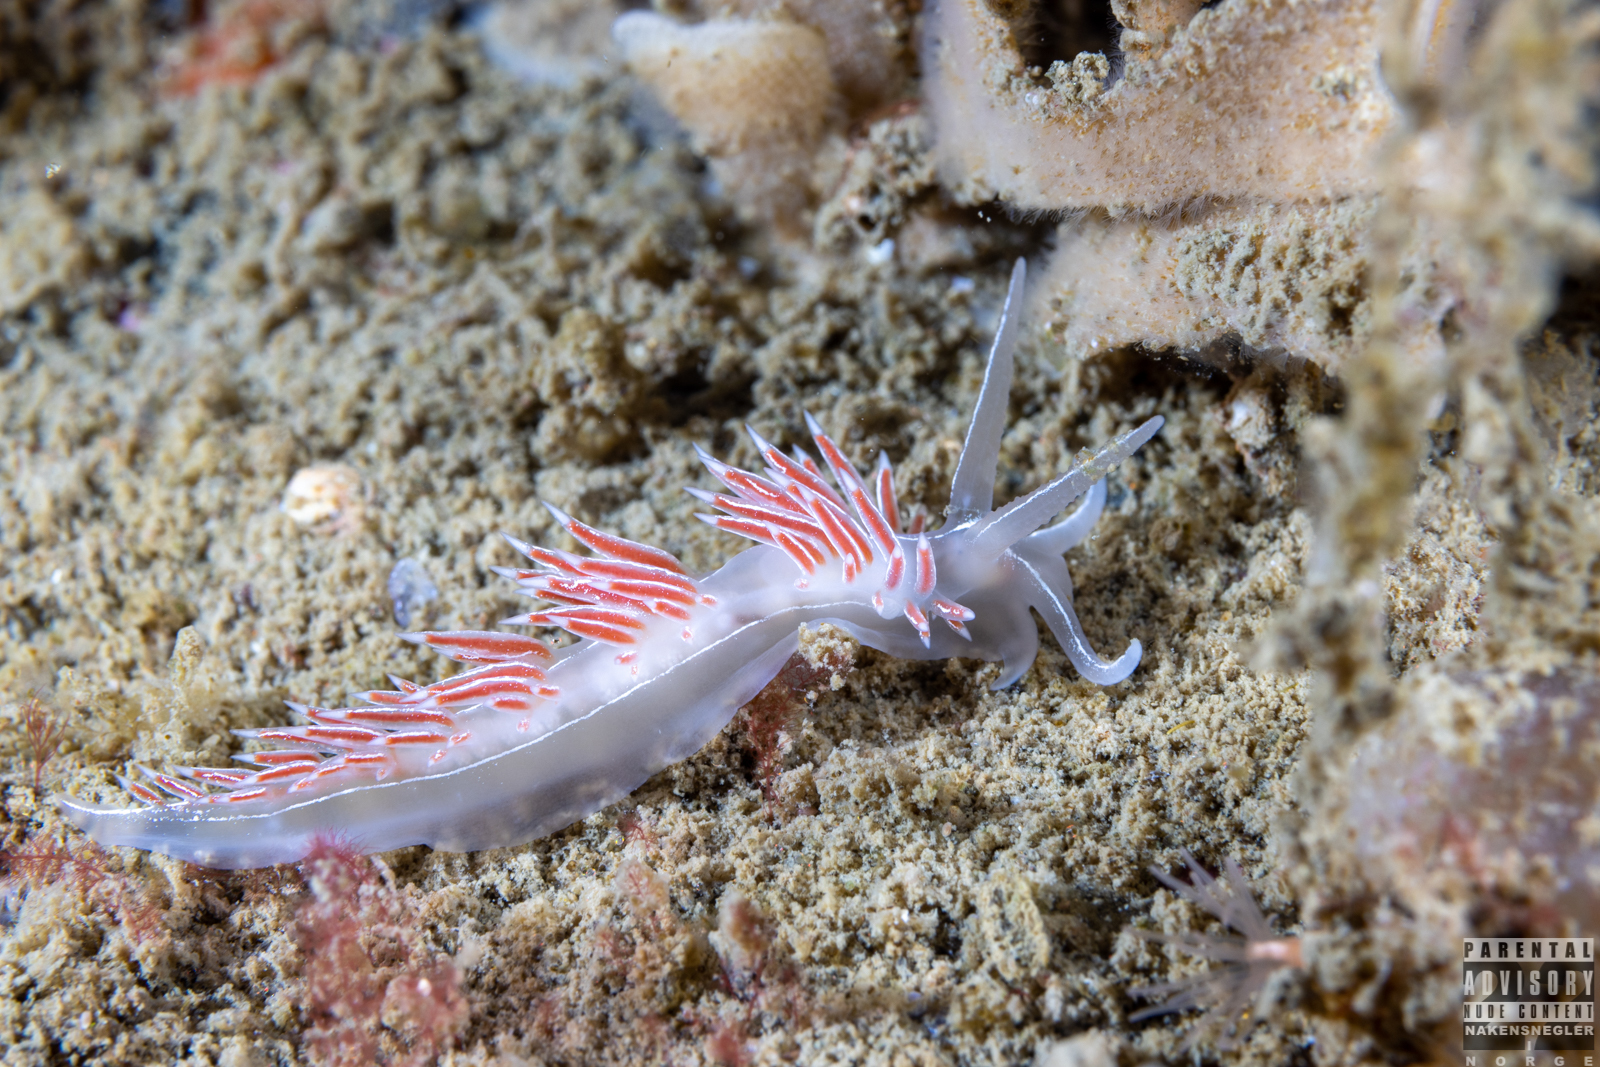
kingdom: Animalia
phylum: Mollusca
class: Gastropoda
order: Nudibranchia
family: Coryphellidae
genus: Coryphella
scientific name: Coryphella chriskaugei
